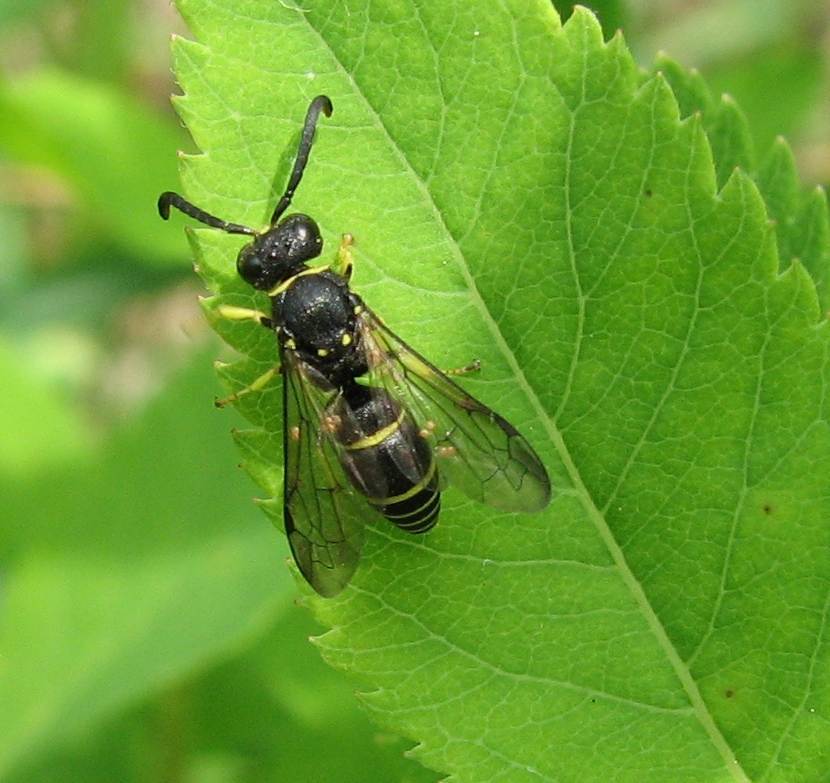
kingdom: Animalia
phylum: Arthropoda
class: Insecta
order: Hymenoptera
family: Vespidae
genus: Ancistrocerus
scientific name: Ancistrocerus adiabatus
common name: Bramble mason wasp
